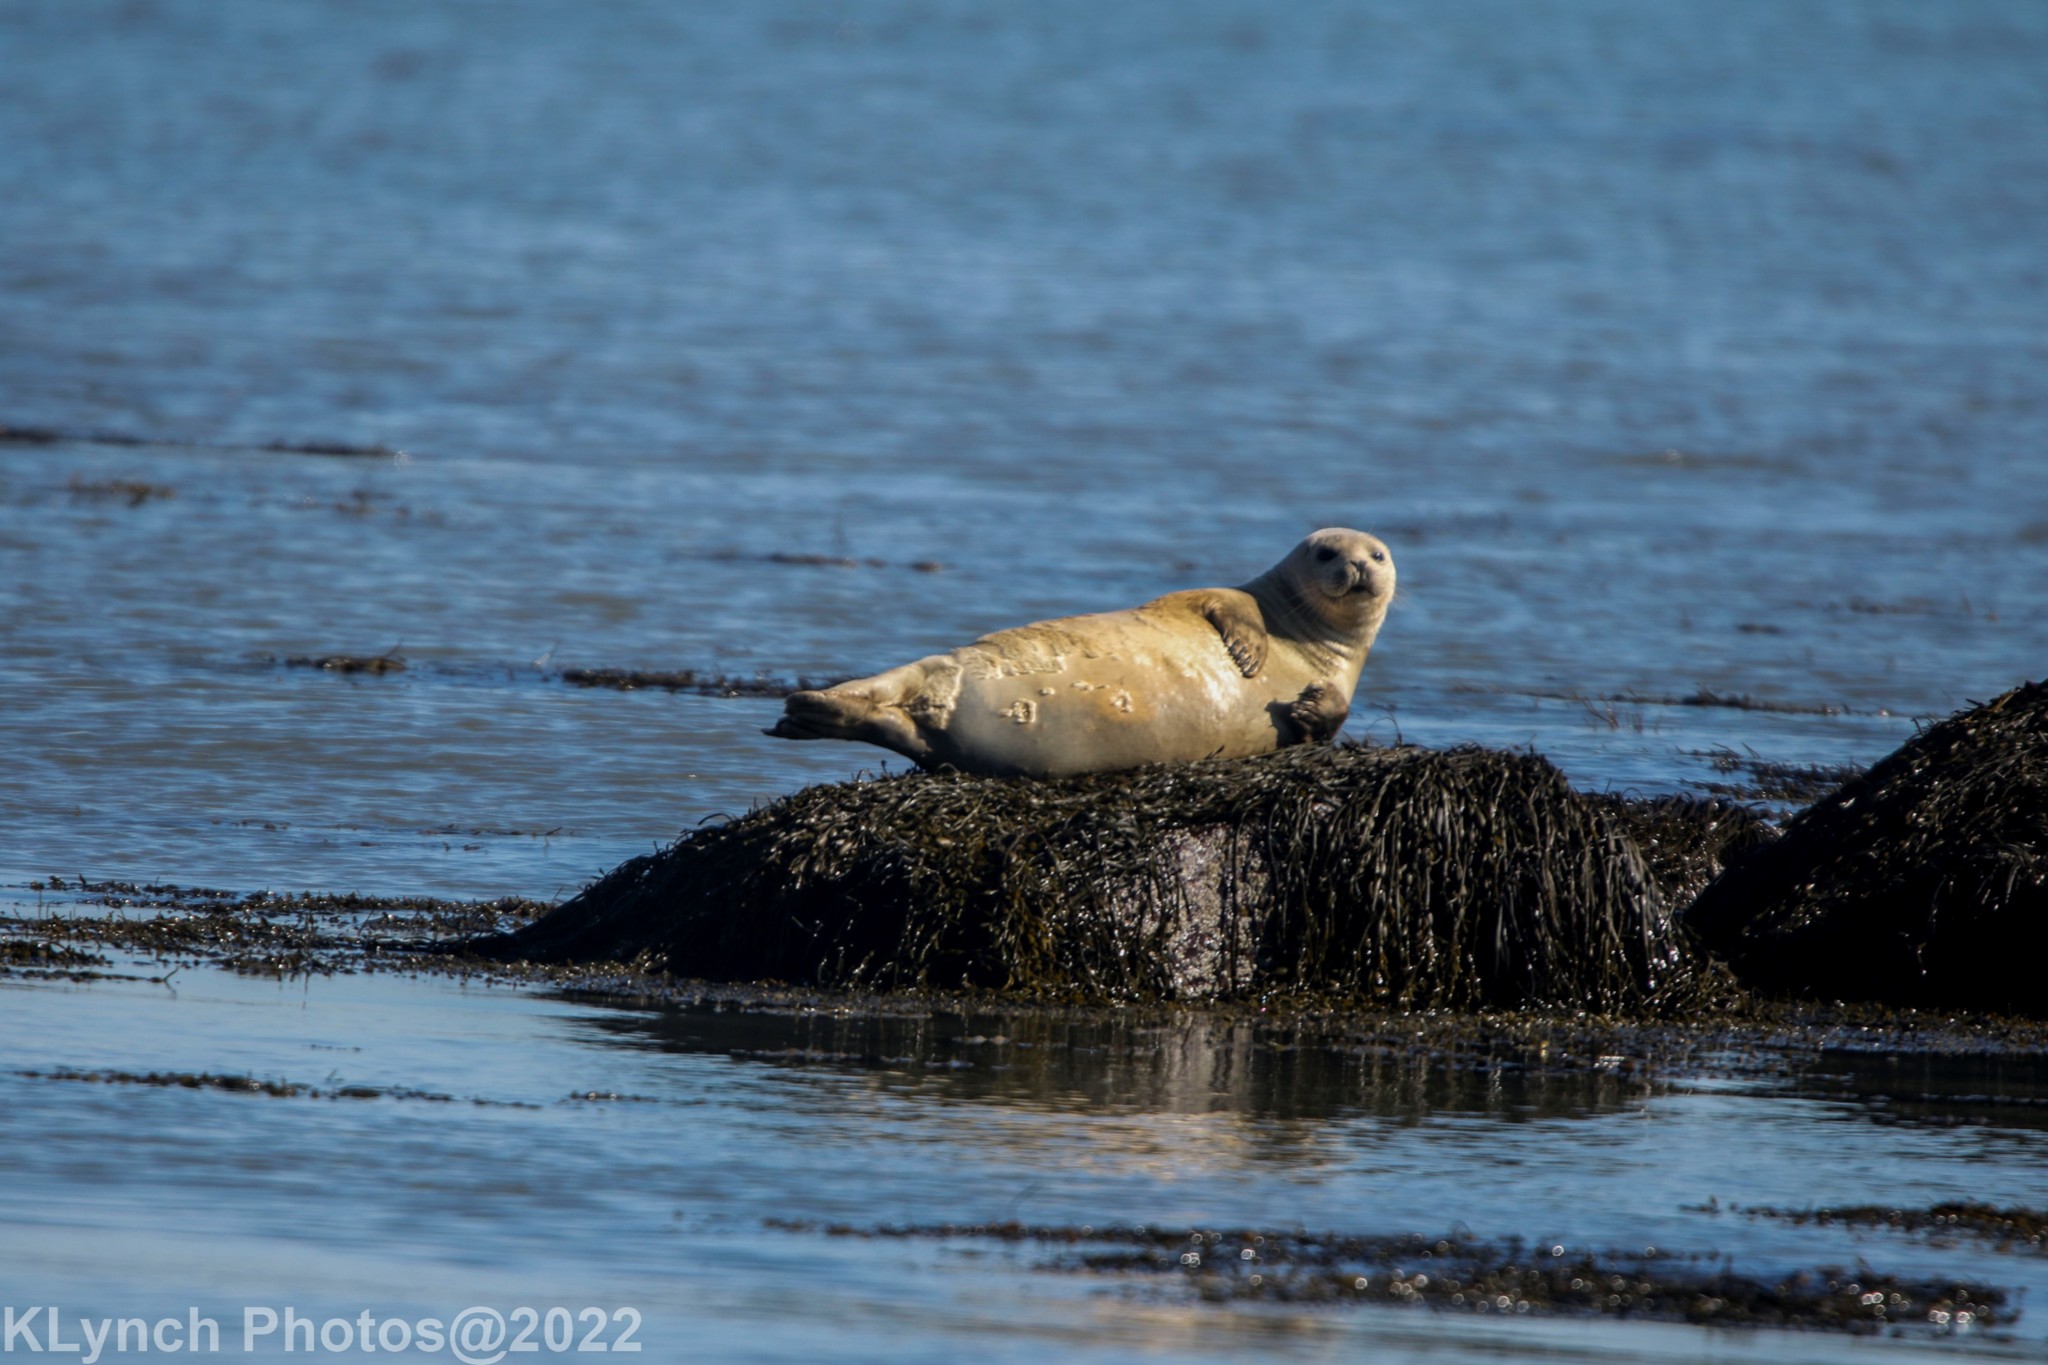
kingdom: Animalia
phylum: Chordata
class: Mammalia
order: Carnivora
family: Phocidae
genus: Phoca
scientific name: Phoca vitulina
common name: Harbor seal
